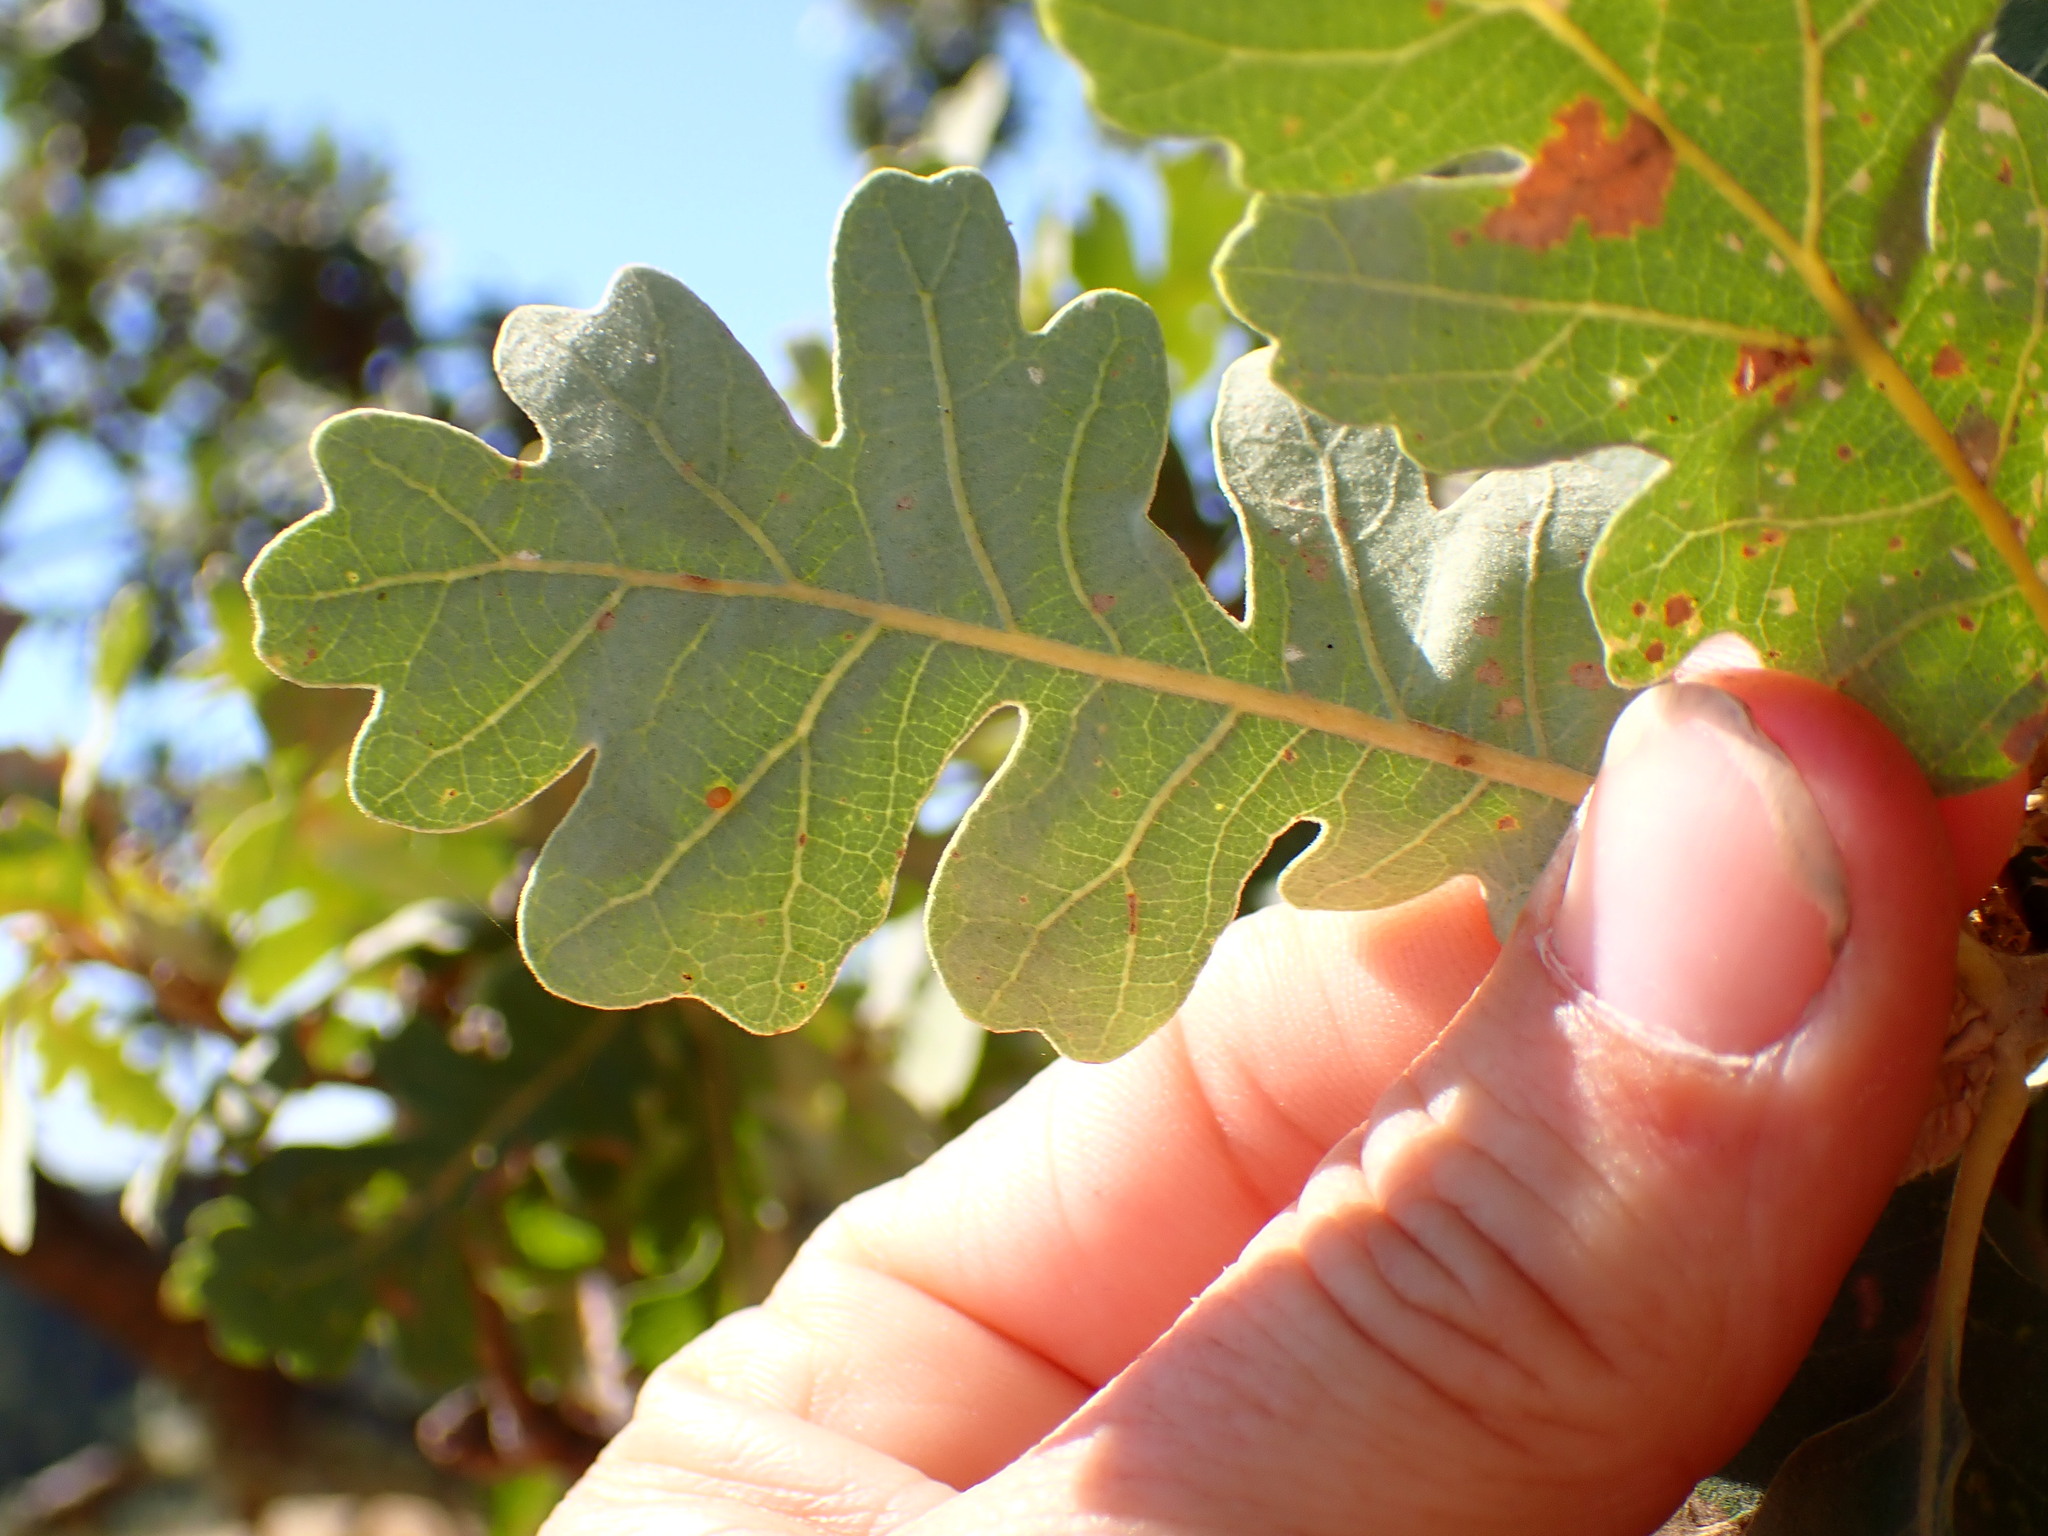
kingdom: Plantae
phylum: Tracheophyta
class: Magnoliopsida
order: Fagales
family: Fagaceae
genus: Quercus
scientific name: Quercus lobata
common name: Valley oak
